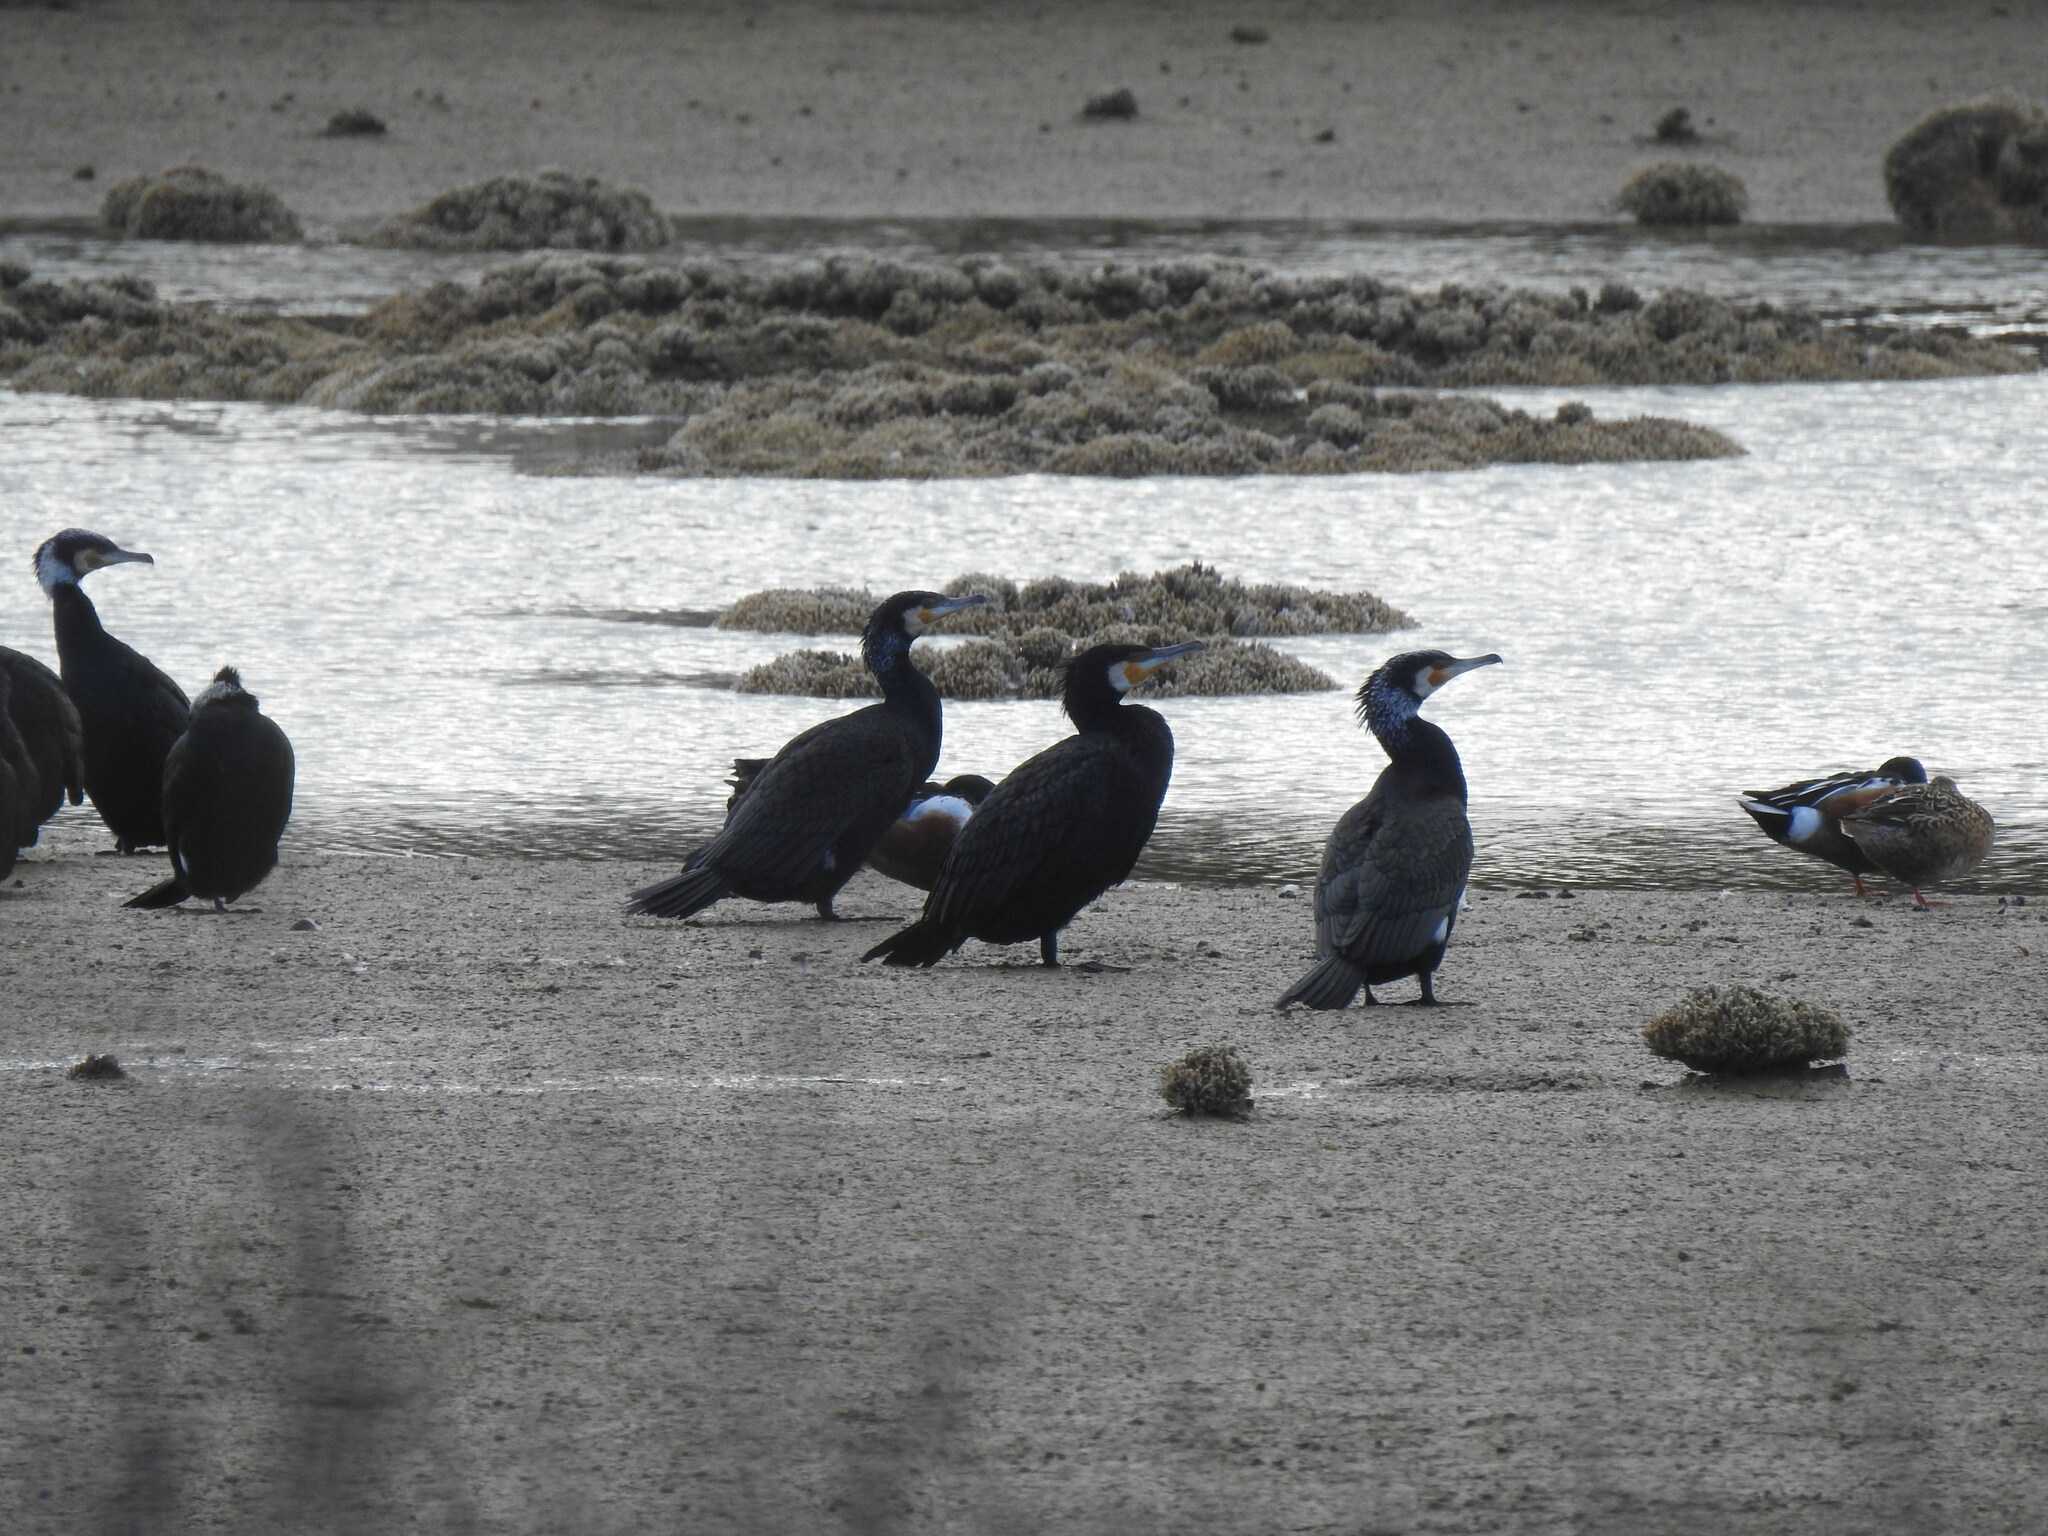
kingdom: Animalia
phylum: Chordata
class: Aves
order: Suliformes
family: Phalacrocoracidae
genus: Phalacrocorax
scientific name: Phalacrocorax carbo
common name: Great cormorant
